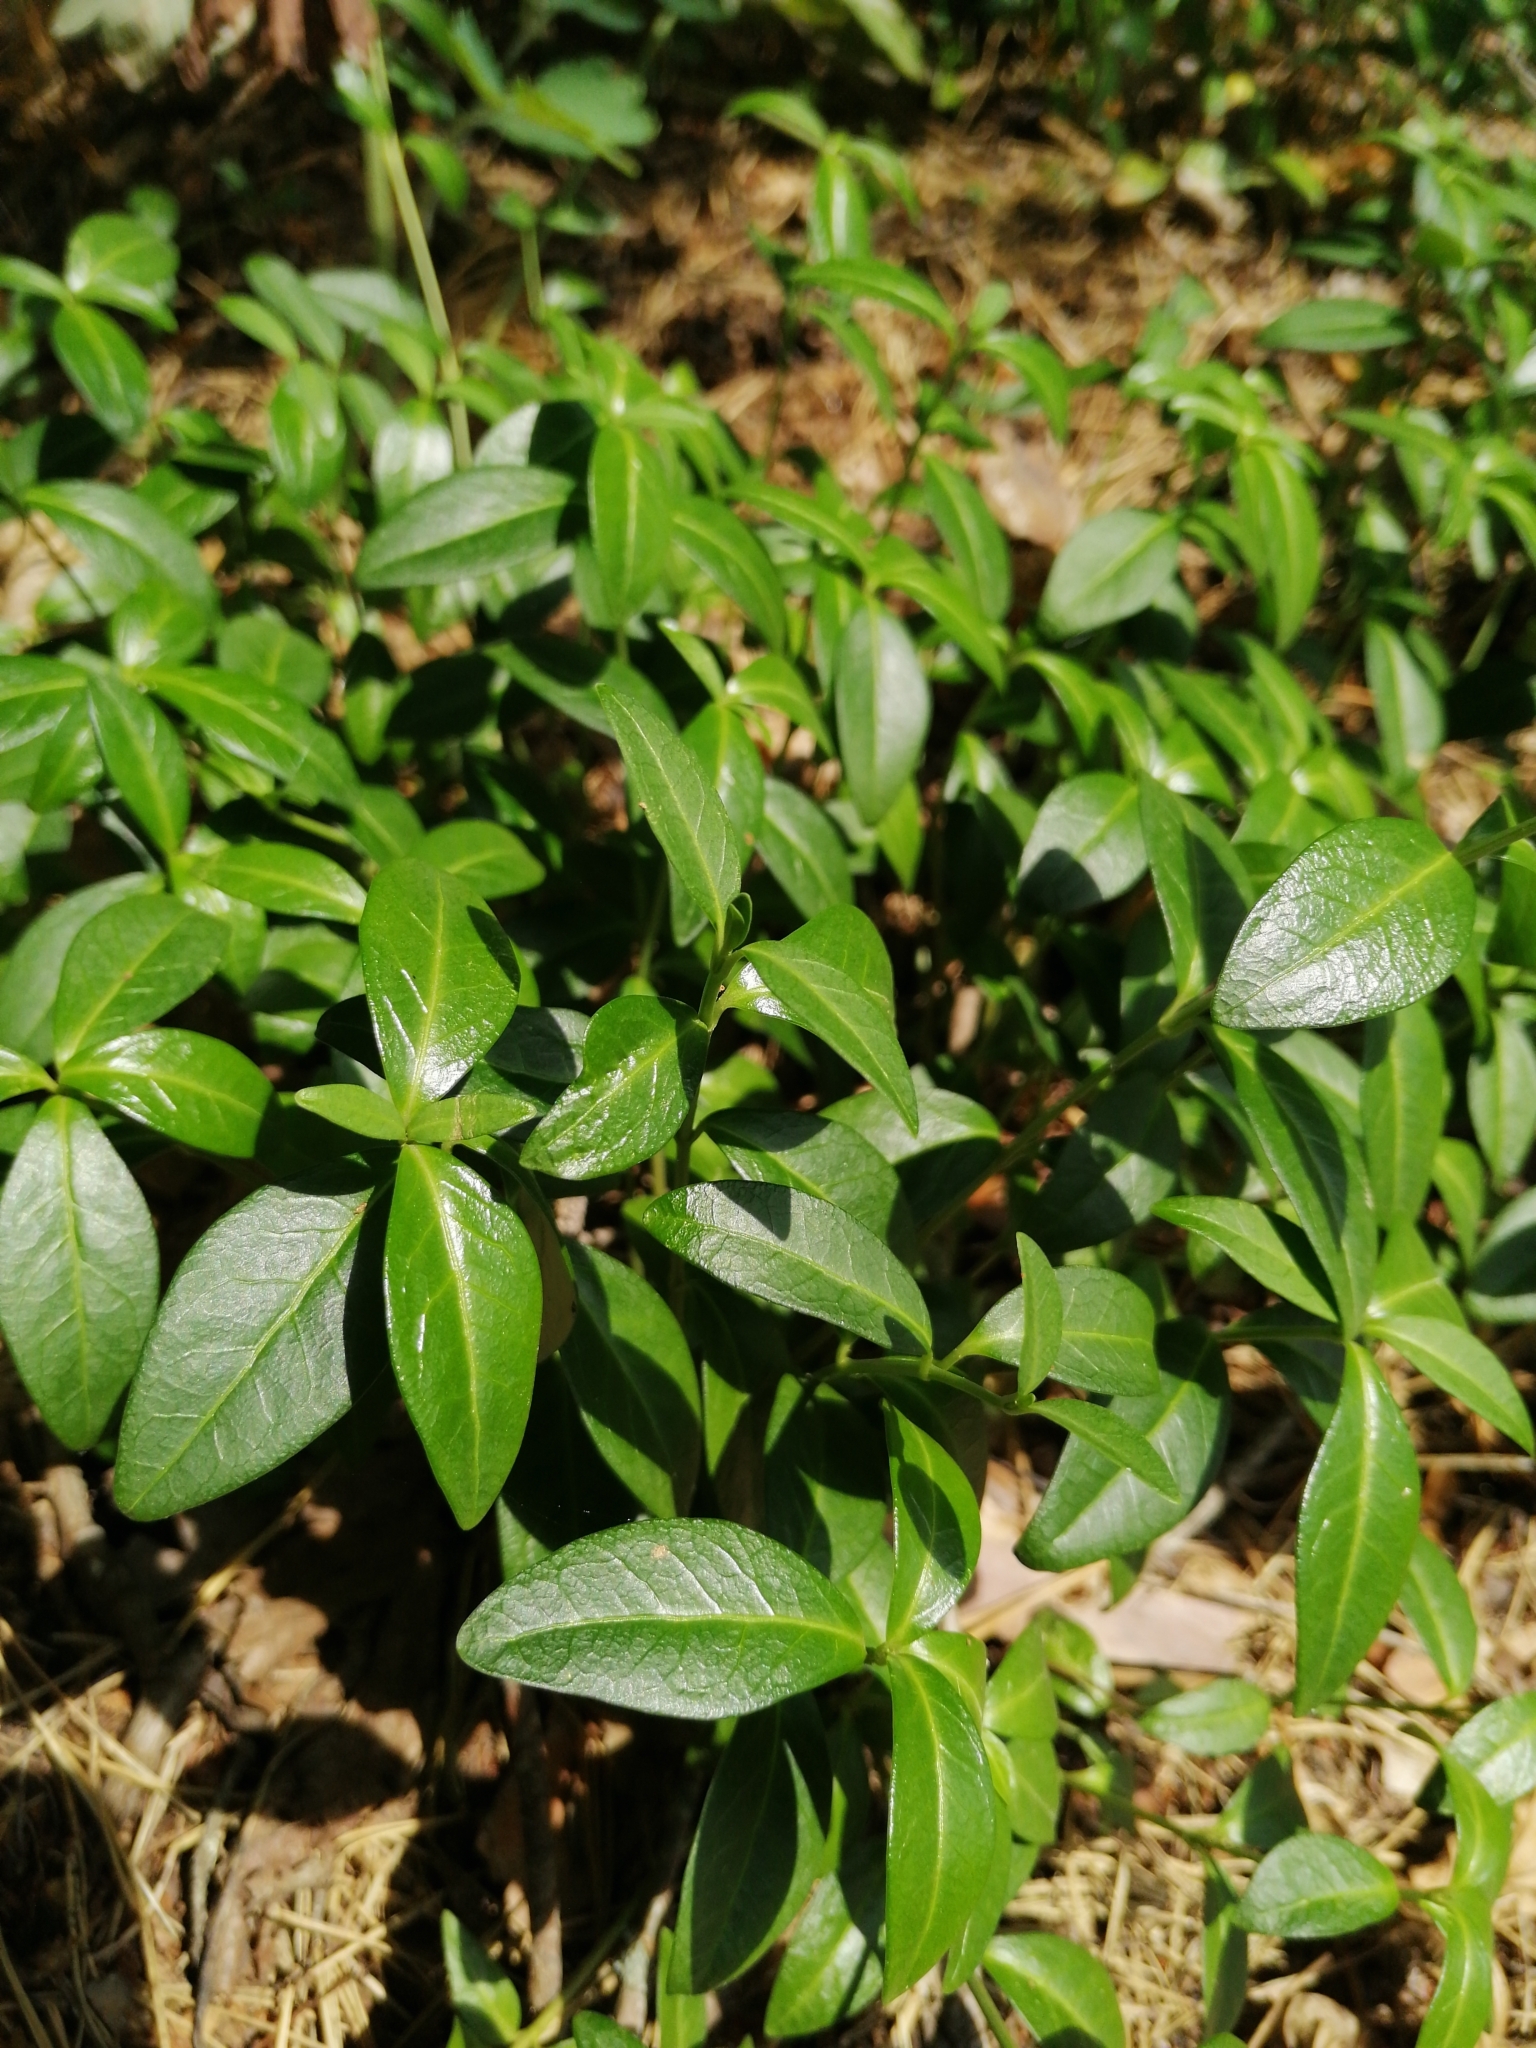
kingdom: Plantae
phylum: Tracheophyta
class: Magnoliopsida
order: Gentianales
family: Apocynaceae
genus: Vinca
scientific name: Vinca minor
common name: Lesser periwinkle
